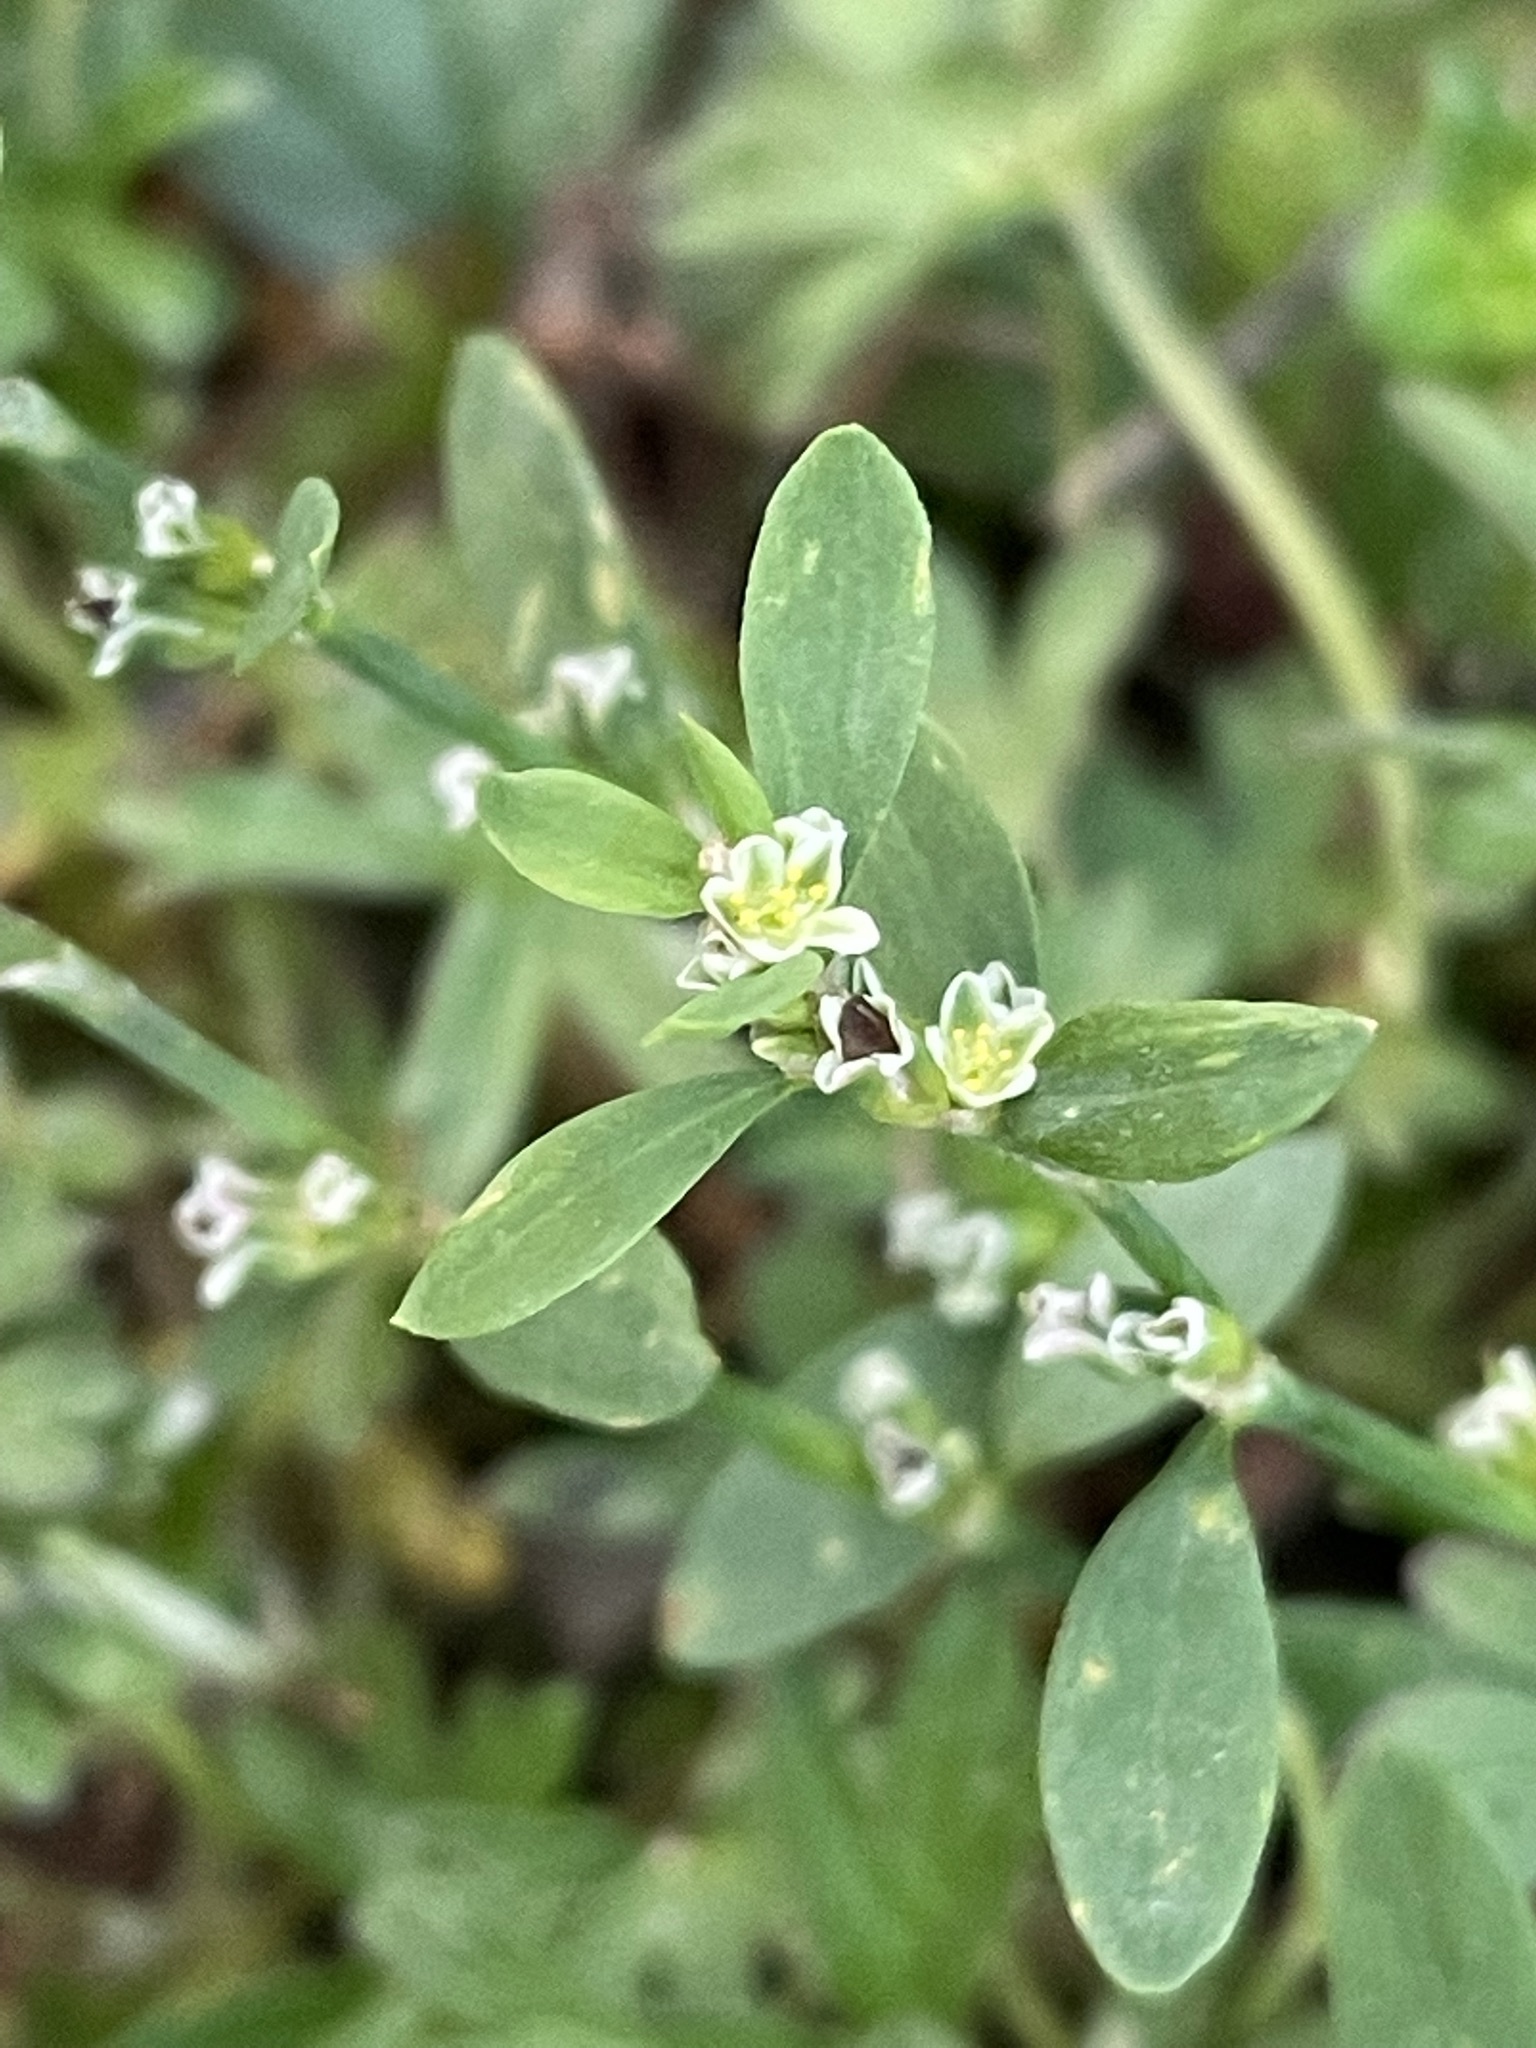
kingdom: Plantae
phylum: Tracheophyta
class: Magnoliopsida
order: Caryophyllales
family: Polygonaceae
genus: Polygonum
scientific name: Polygonum aviculare
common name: Prostrate knotweed
